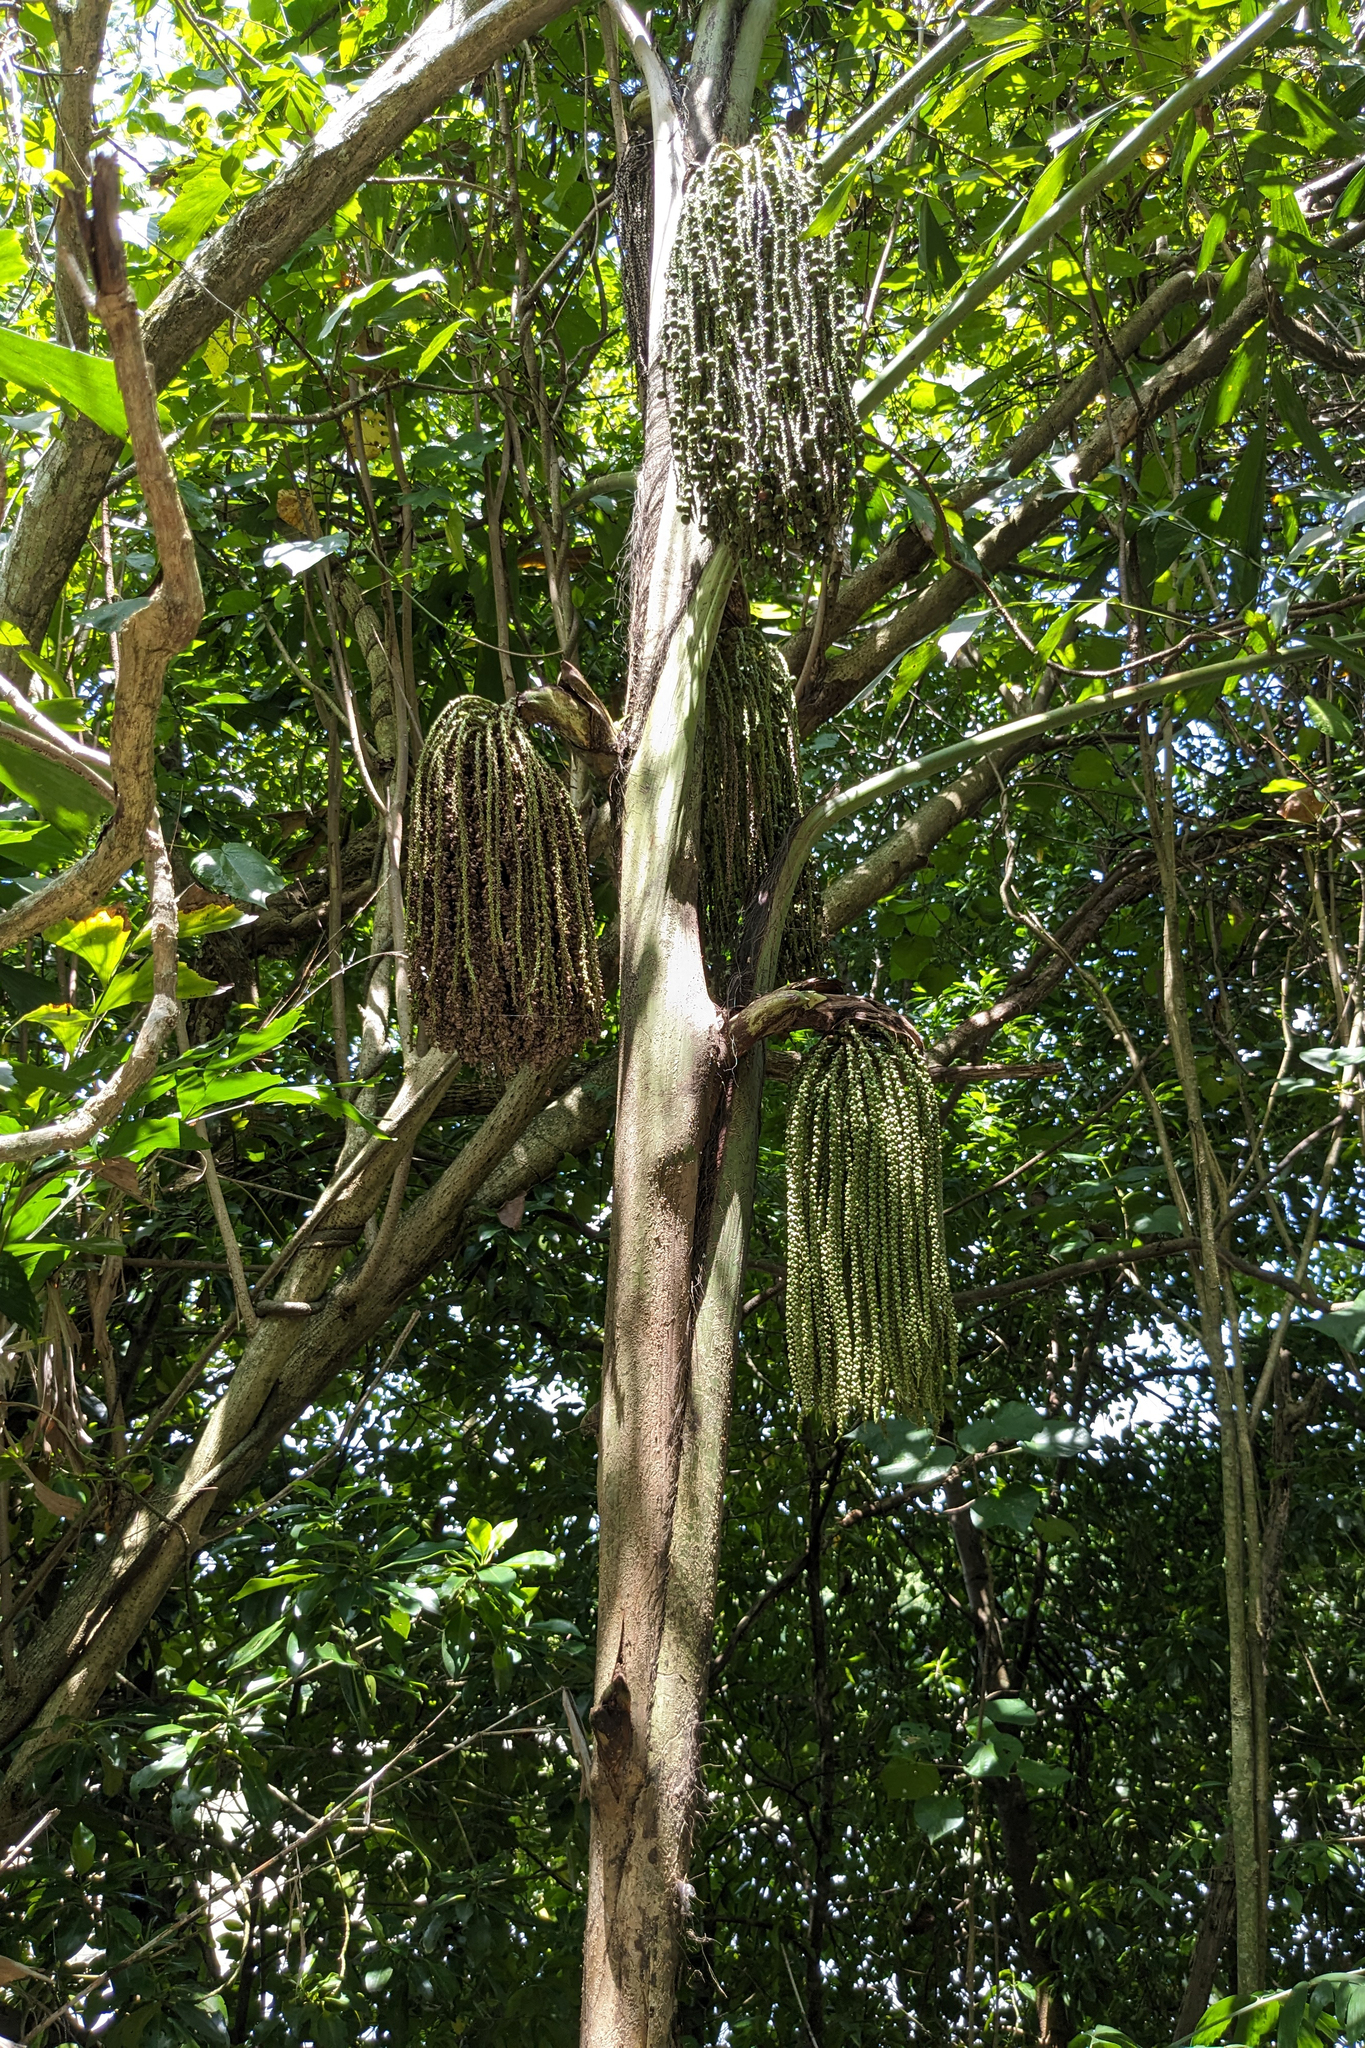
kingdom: Plantae
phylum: Tracheophyta
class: Liliopsida
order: Arecales
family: Arecaceae
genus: Caryota
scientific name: Caryota mitis
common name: Burmese fishtail palm
